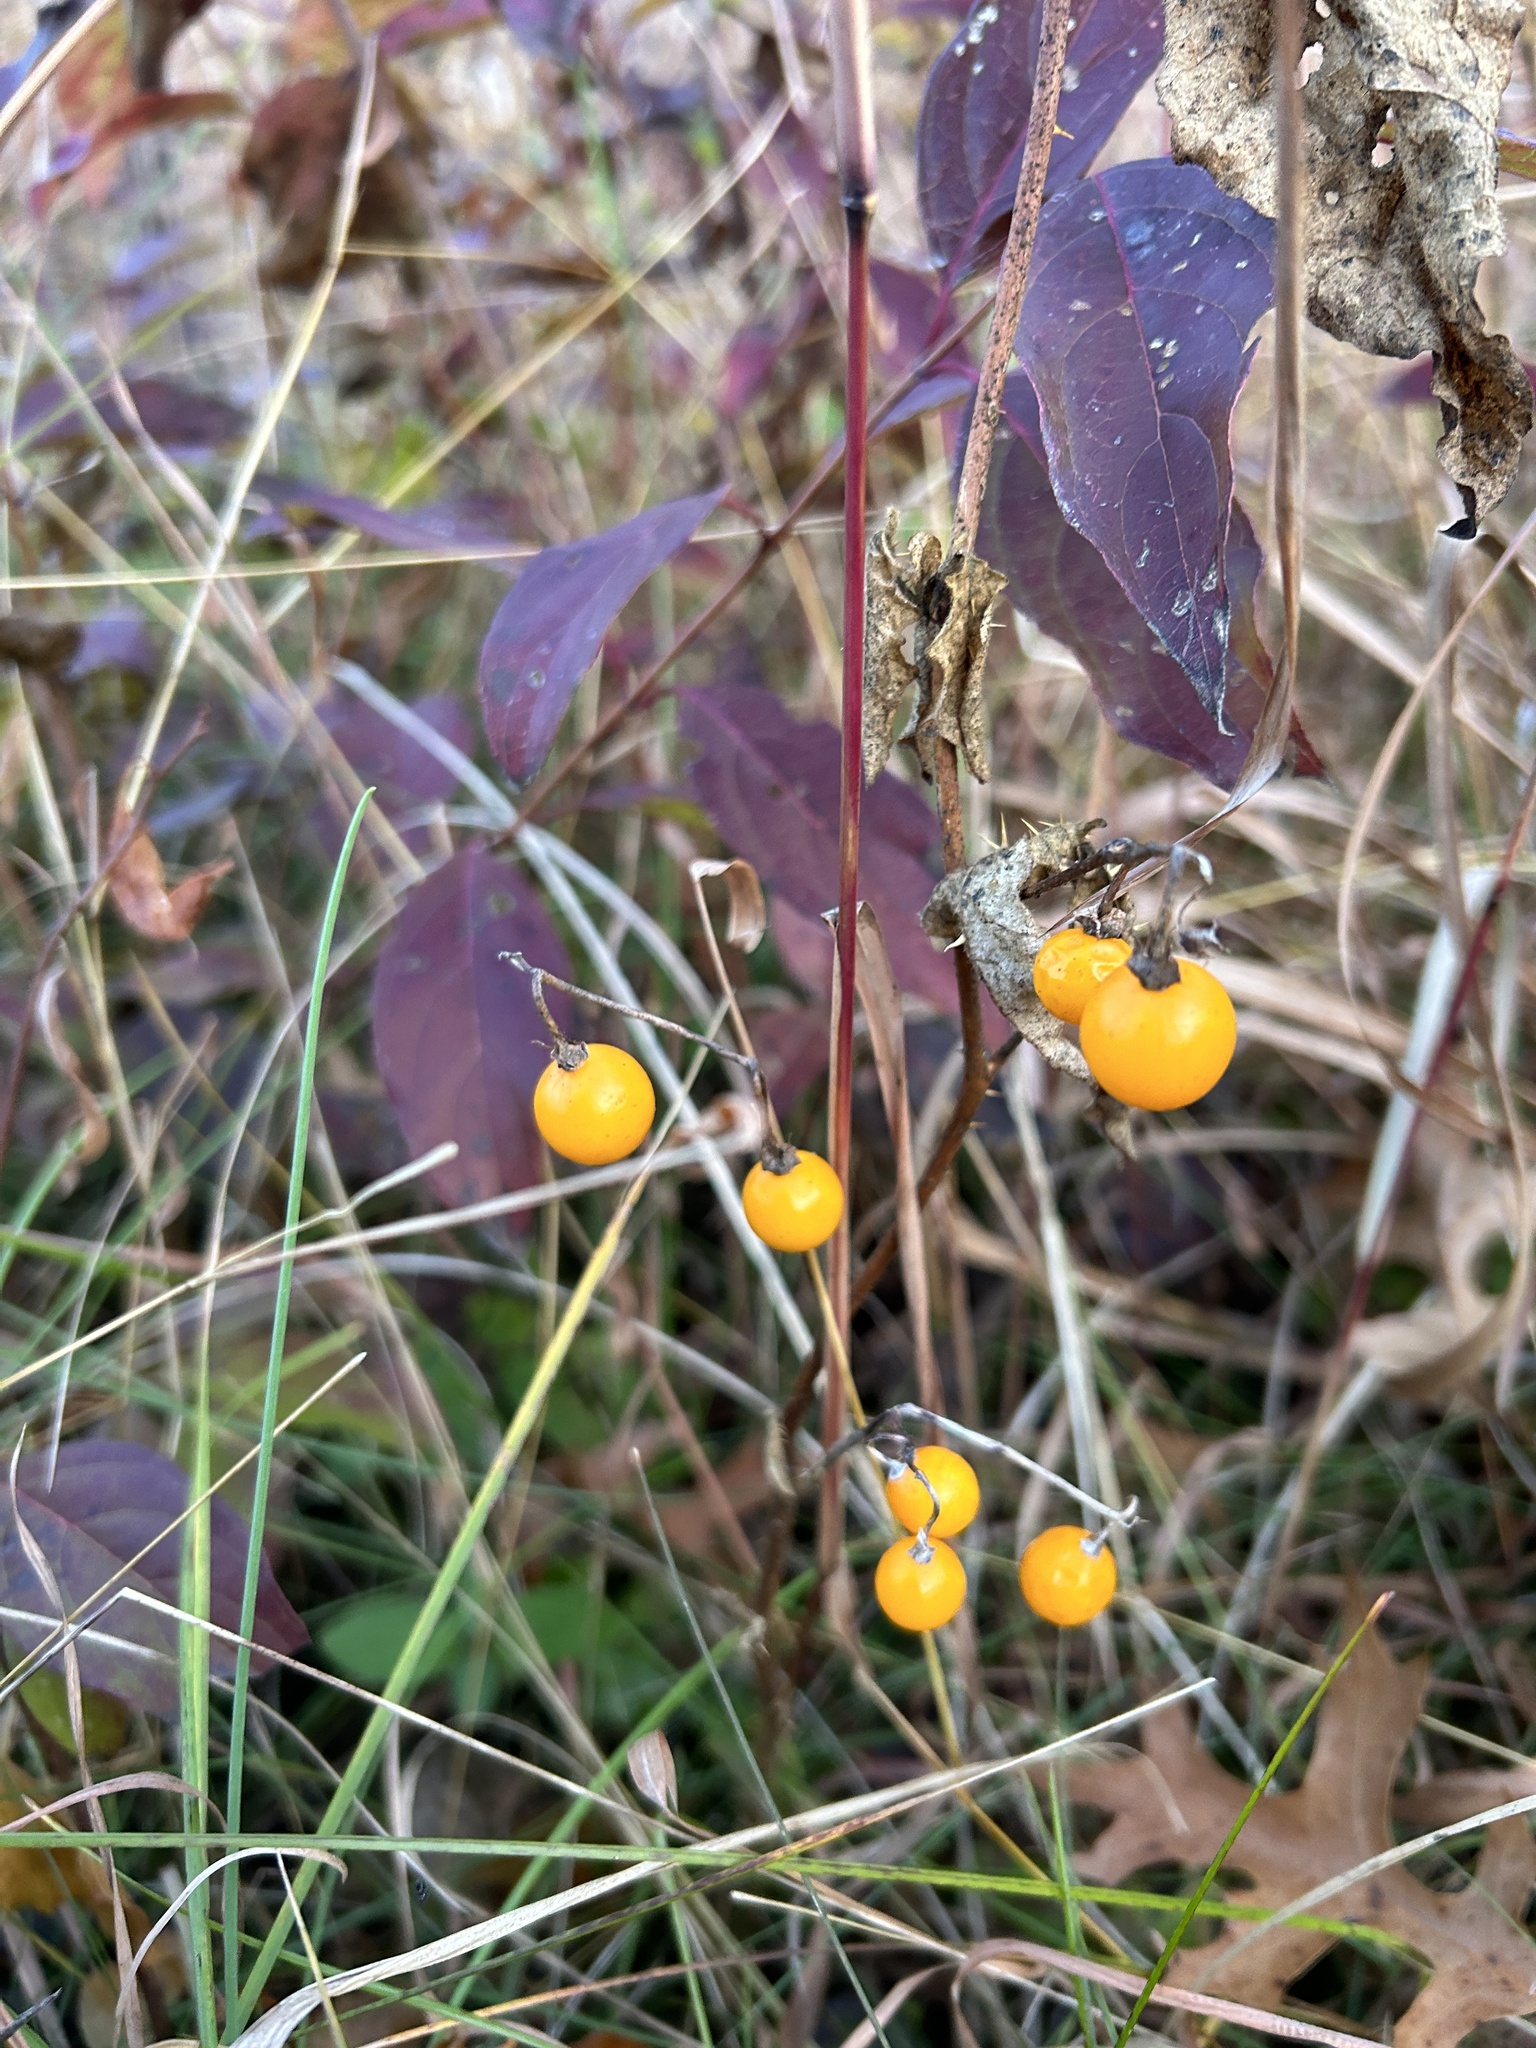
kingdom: Plantae
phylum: Tracheophyta
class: Magnoliopsida
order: Solanales
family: Solanaceae
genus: Solanum
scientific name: Solanum carolinense
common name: Horse-nettle
